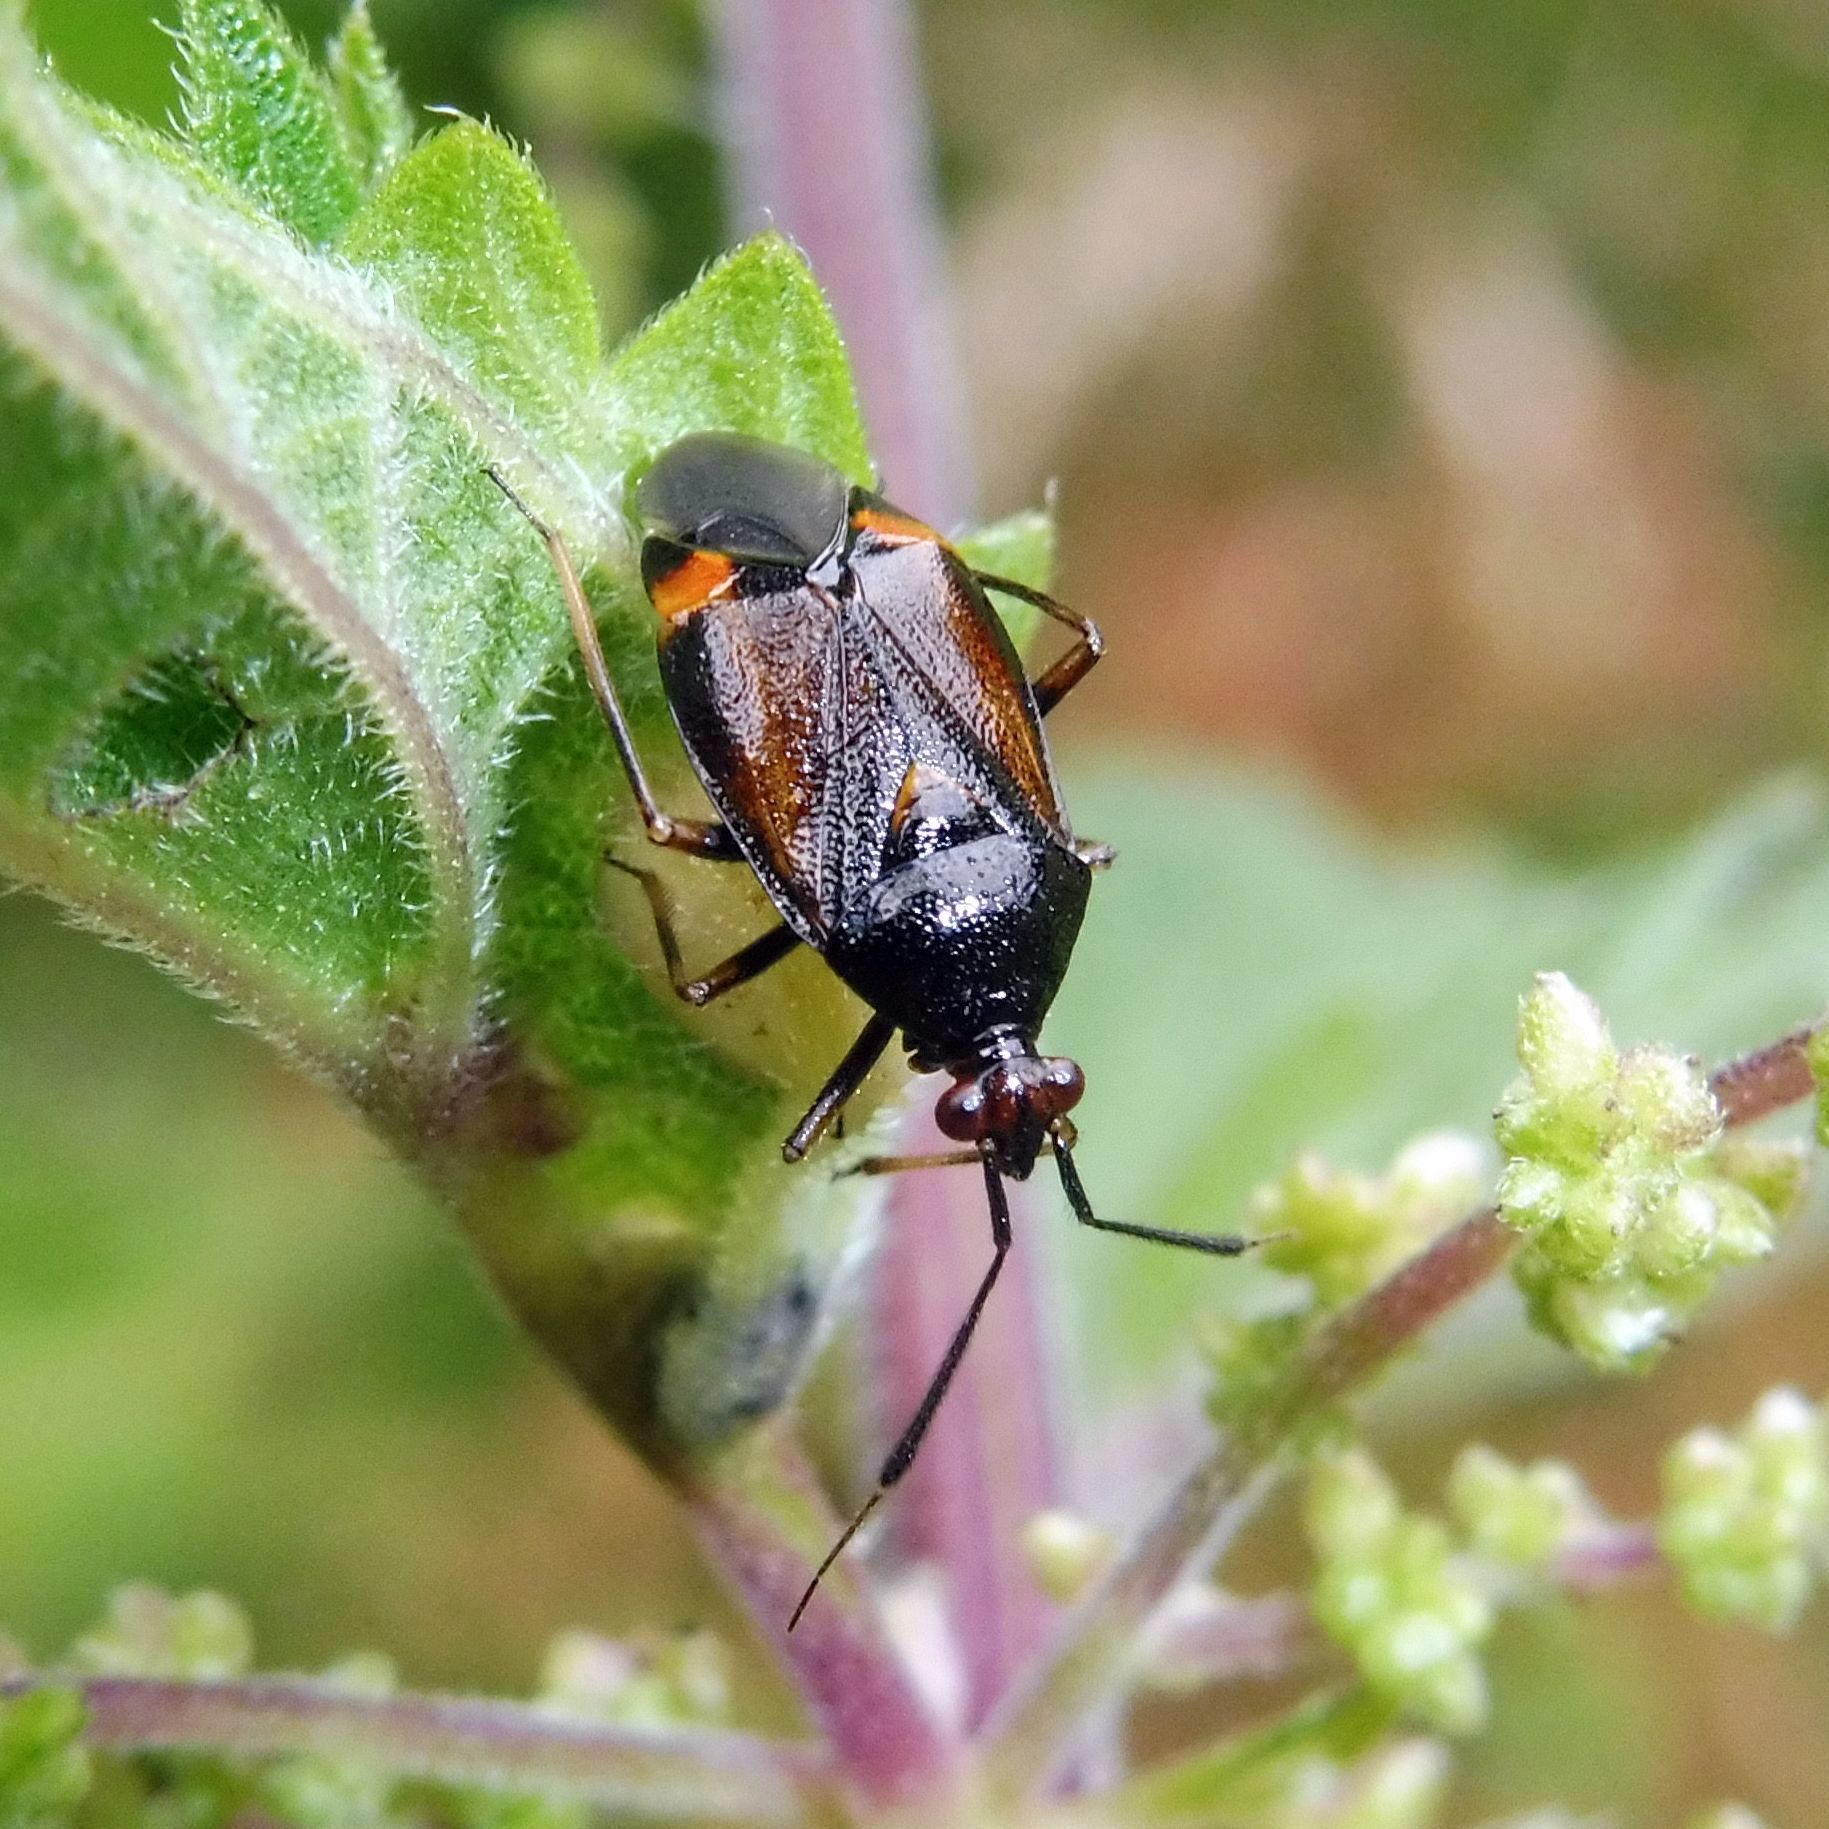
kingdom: Animalia
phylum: Arthropoda
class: Insecta
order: Hemiptera
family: Miridae
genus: Deraeocoris
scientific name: Deraeocoris ruber
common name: Plant bug
